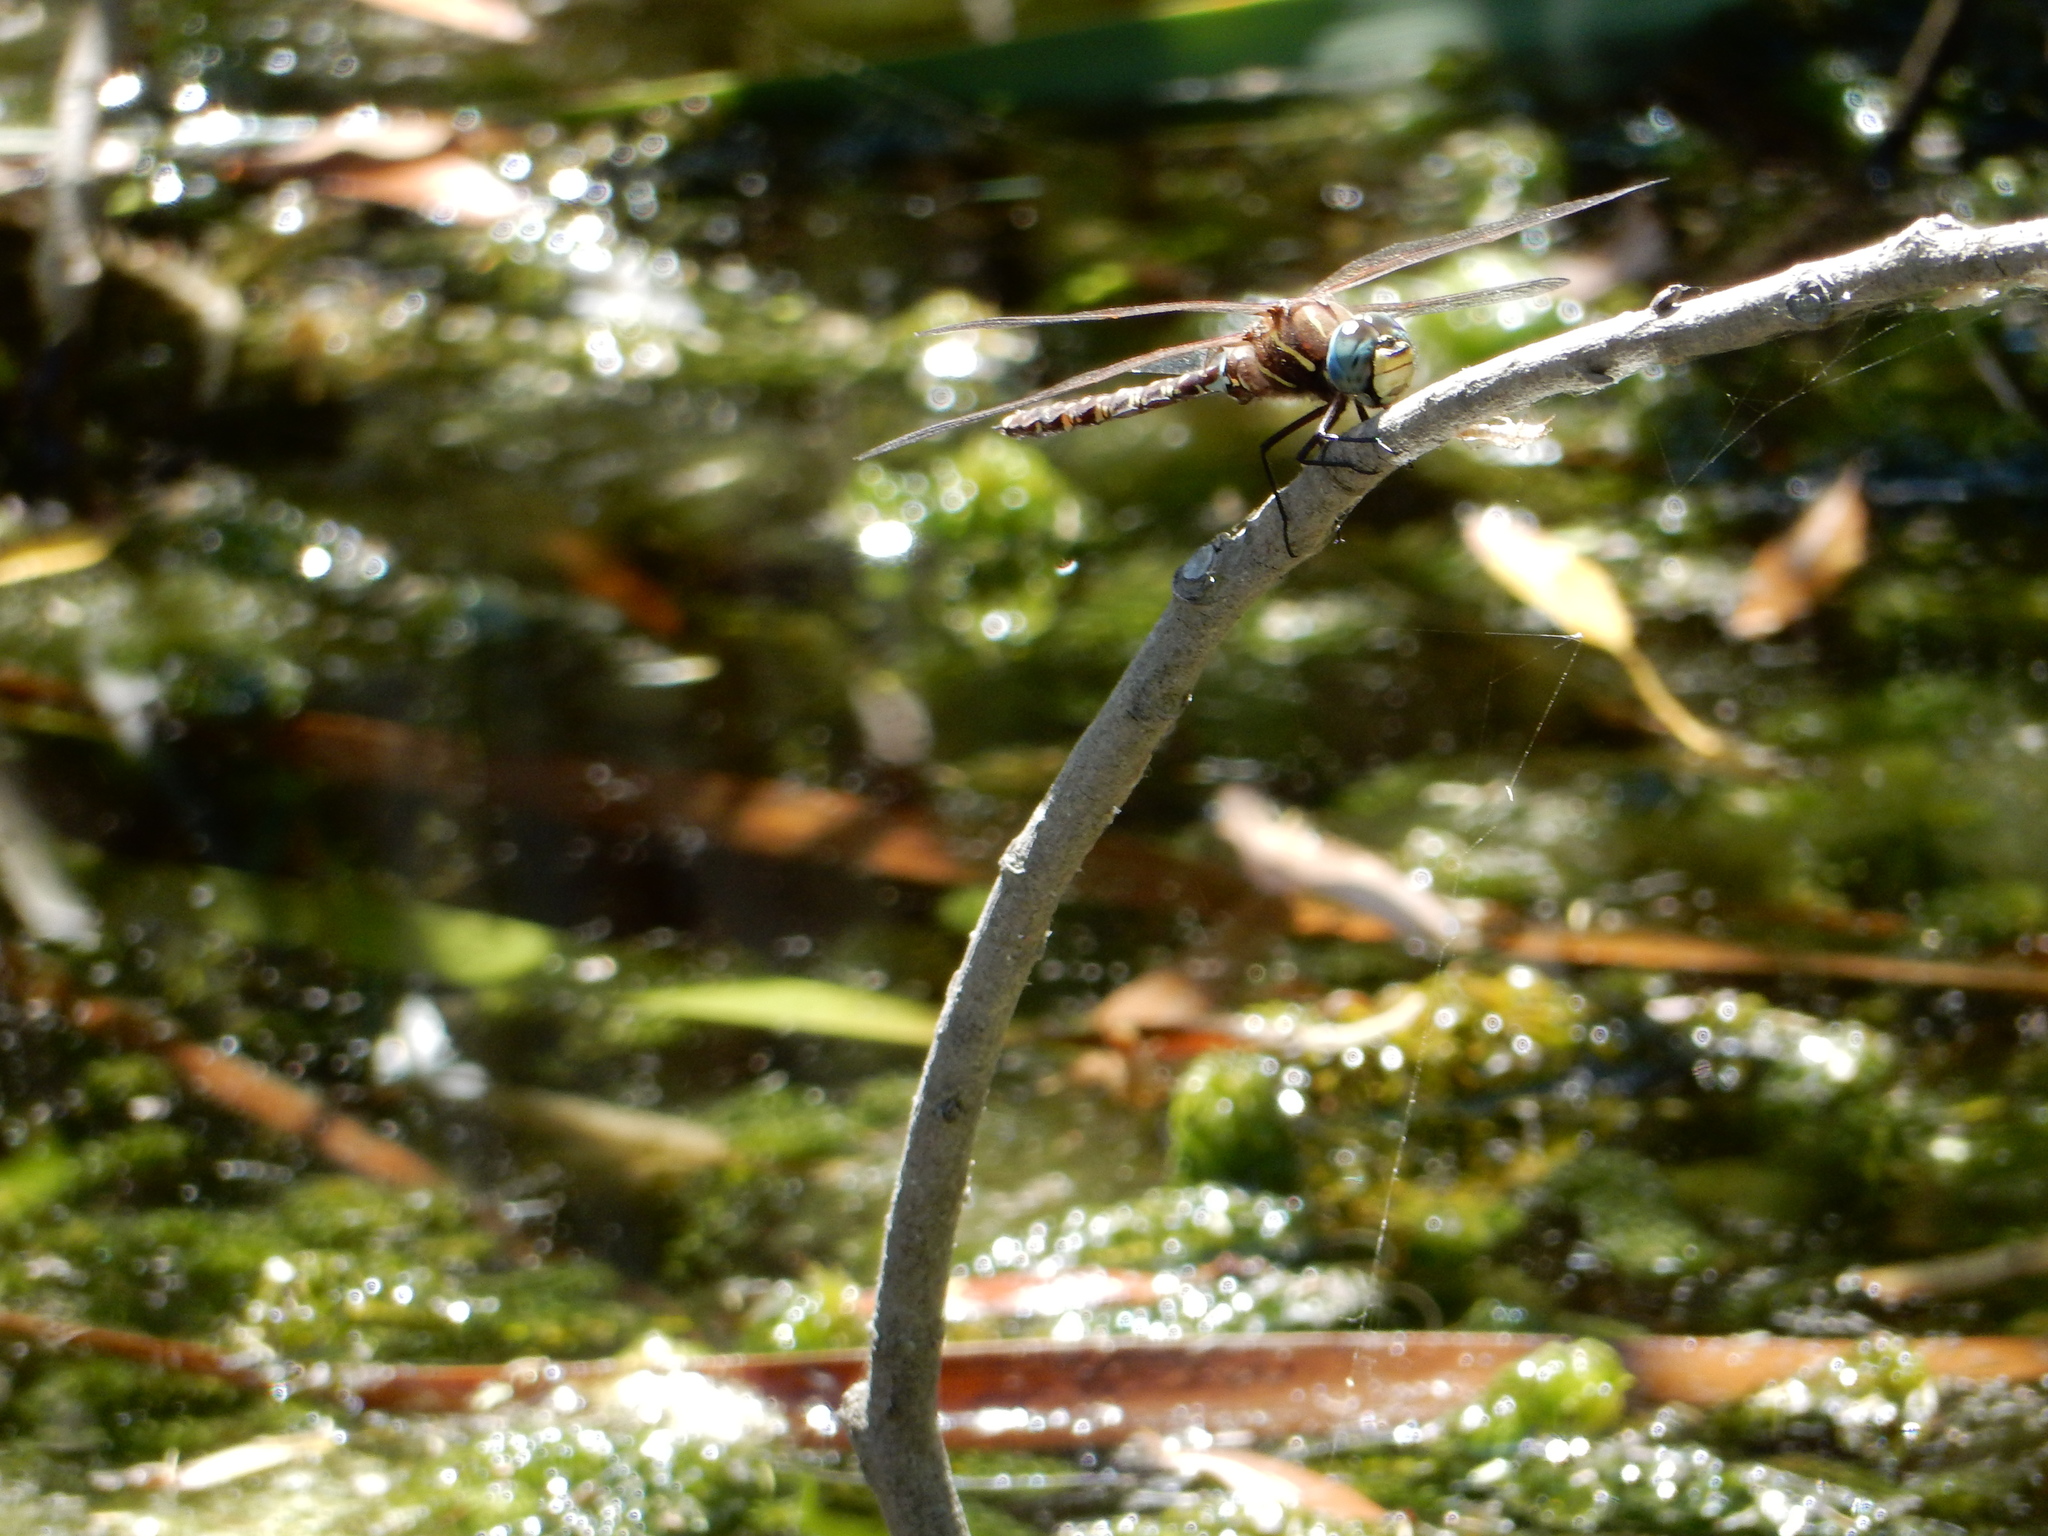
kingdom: Animalia
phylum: Arthropoda
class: Insecta
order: Odonata
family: Aeshnidae
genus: Aeshna
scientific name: Aeshna brevistyla
